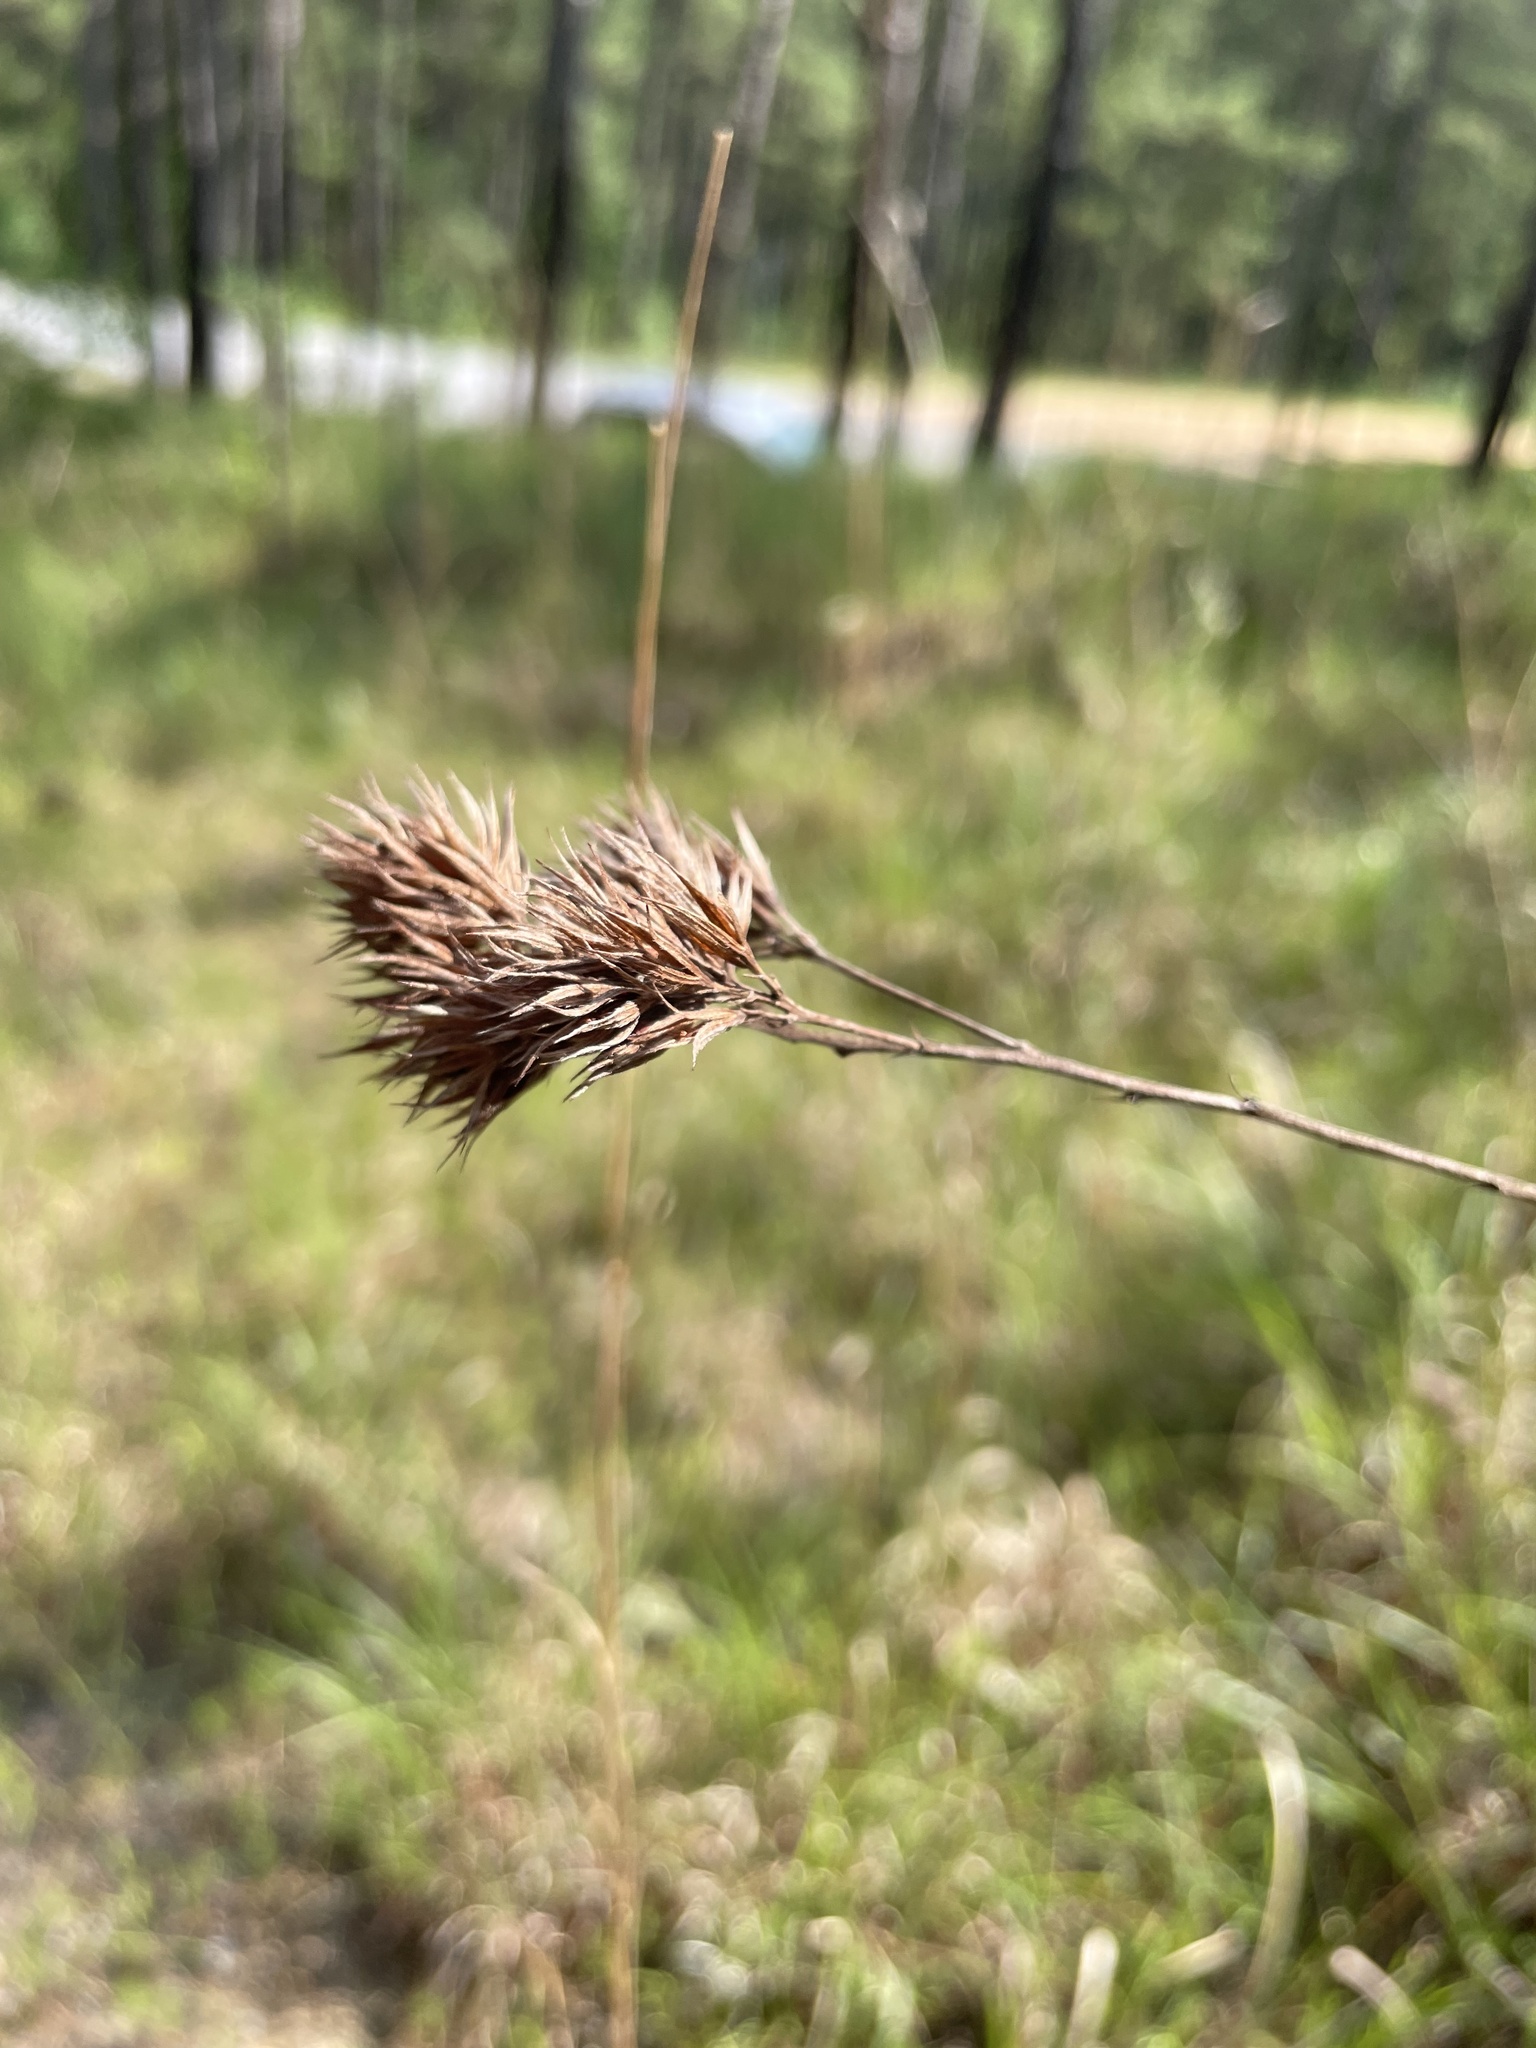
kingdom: Plantae
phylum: Tracheophyta
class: Magnoliopsida
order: Fabales
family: Fabaceae
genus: Lespedeza
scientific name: Lespedeza capitata
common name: Dusty clover
